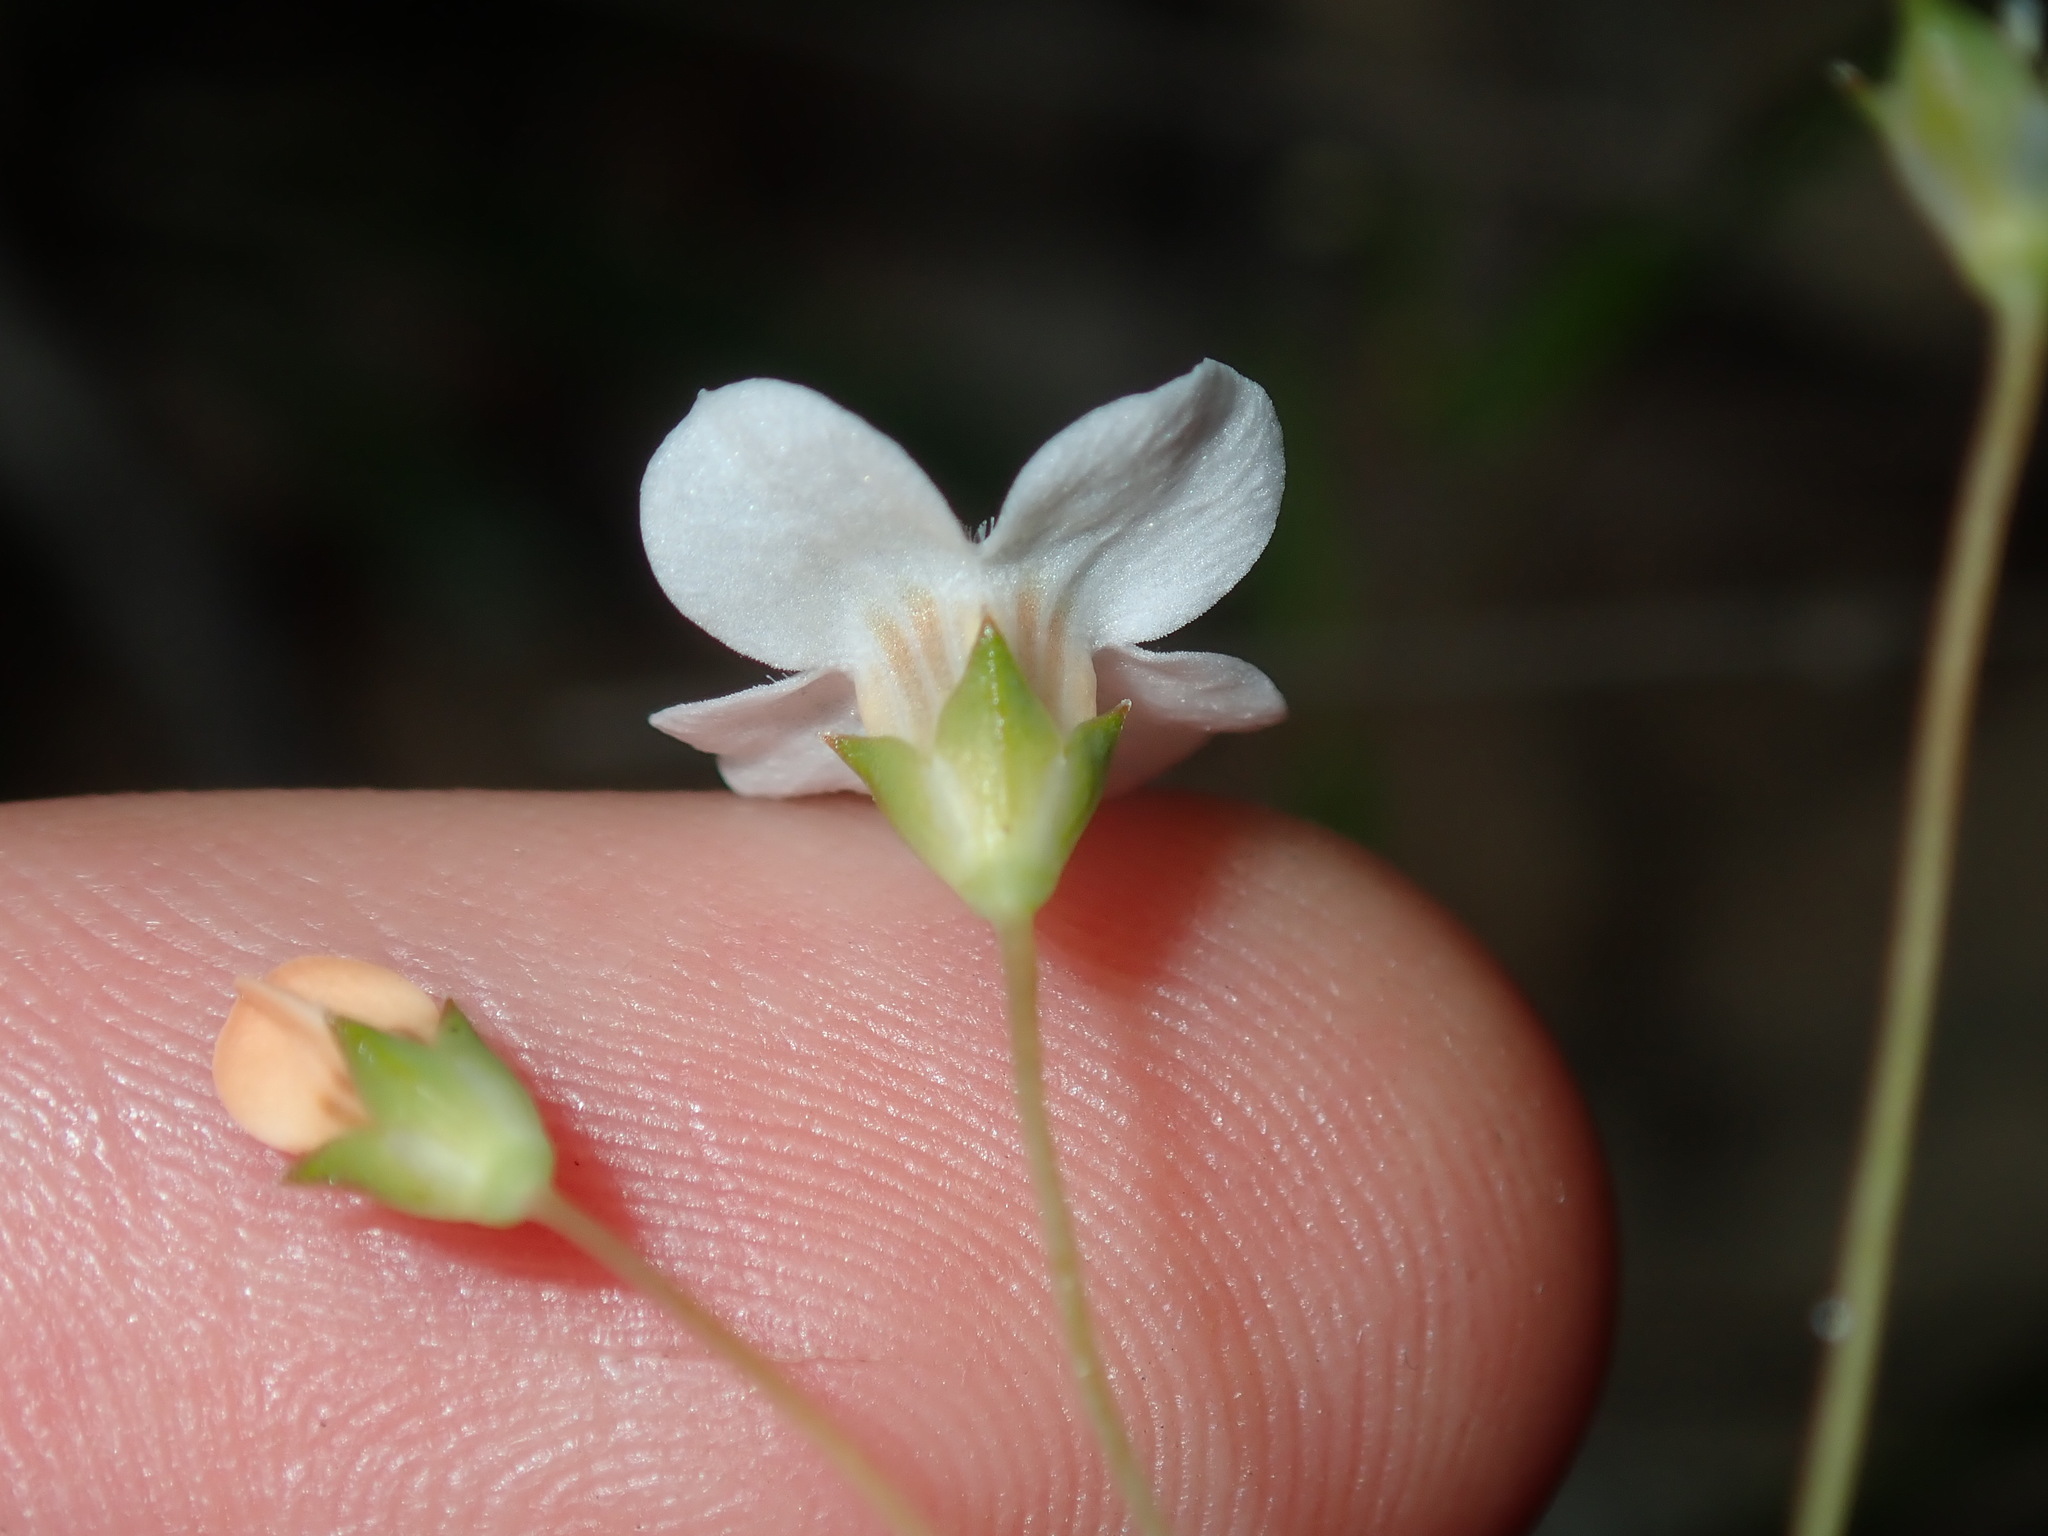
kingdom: Plantae
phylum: Tracheophyta
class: Magnoliopsida
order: Gentianales
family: Loganiaceae
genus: Mitrasacme
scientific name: Mitrasacme polymorpha
